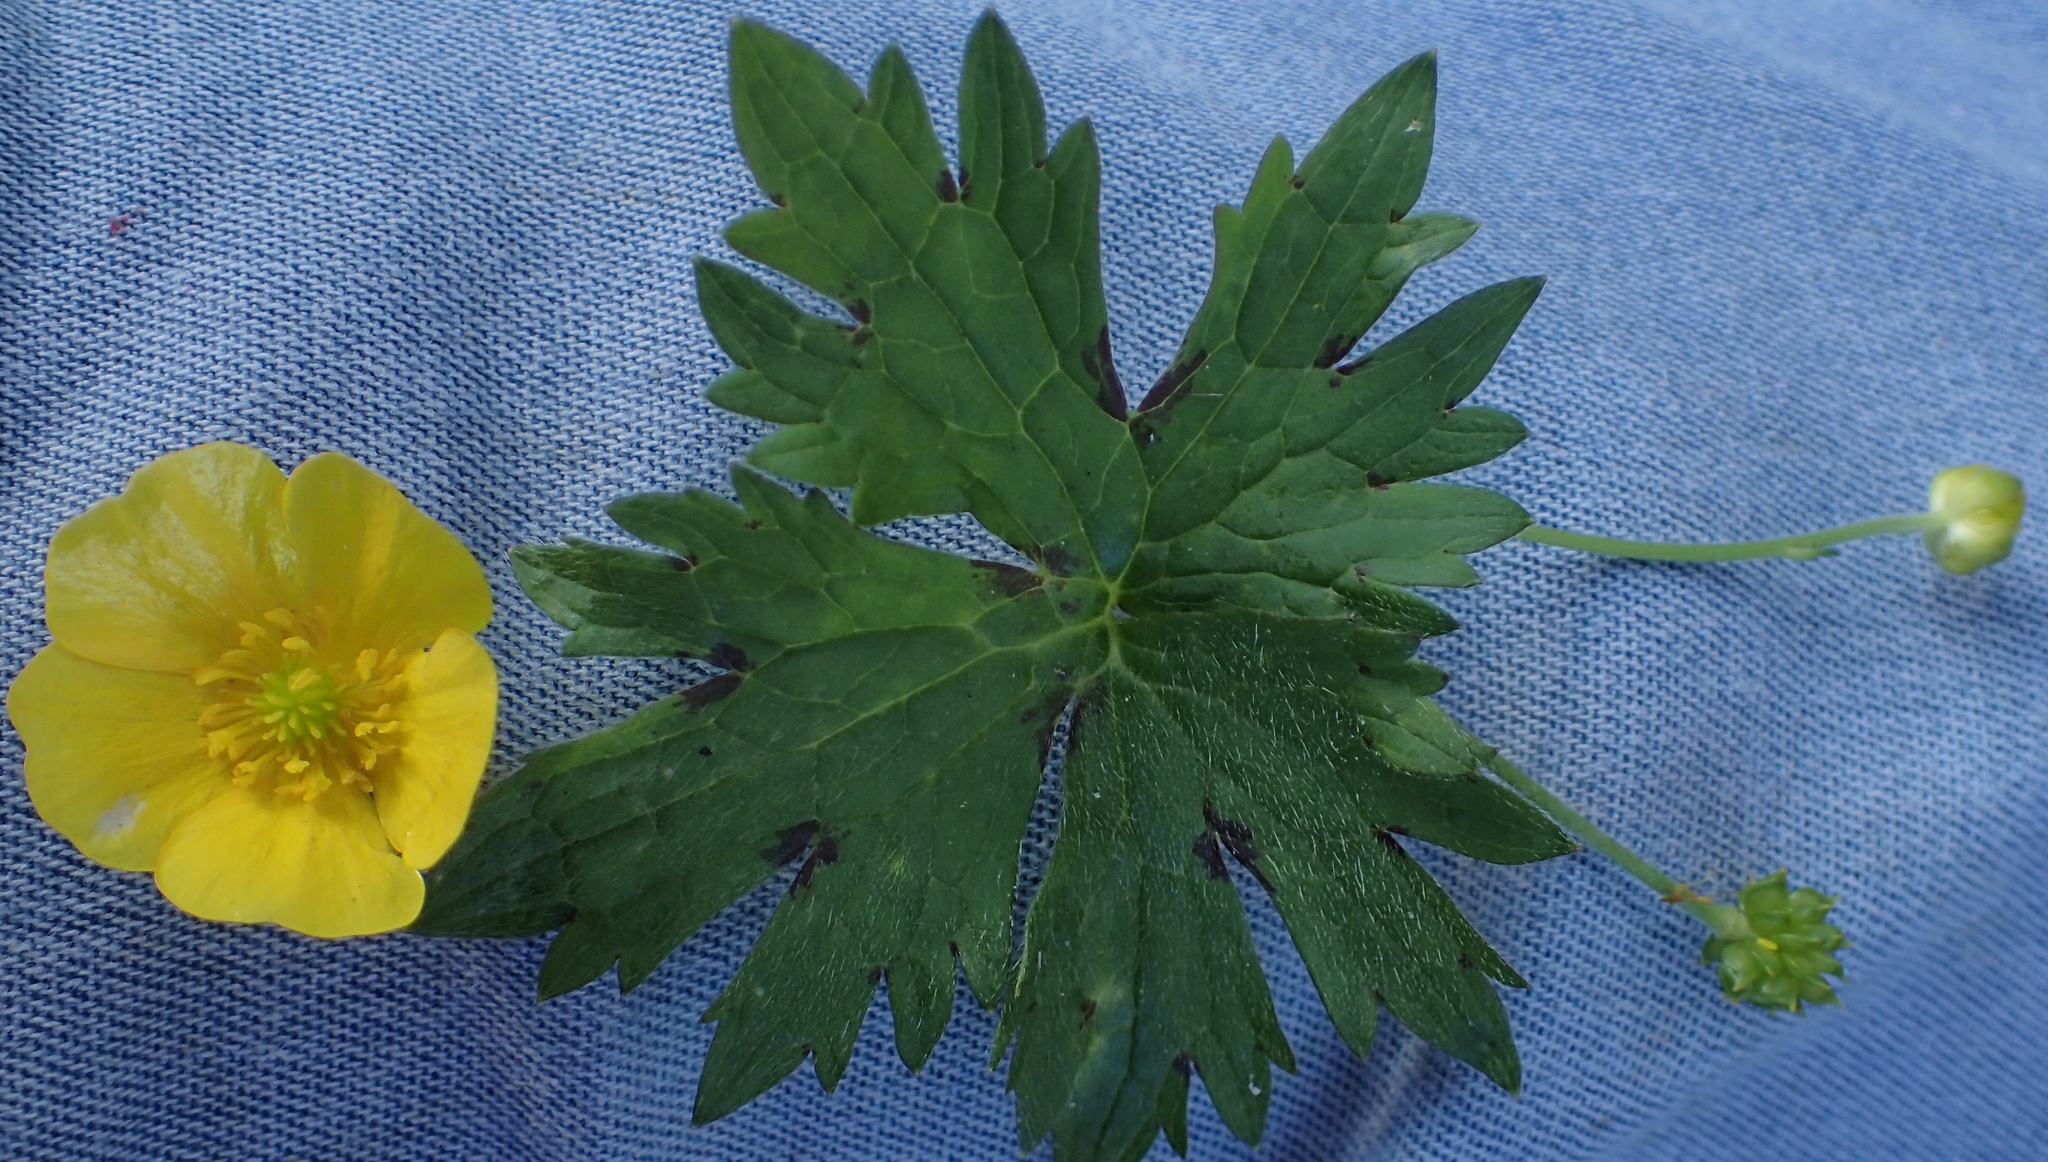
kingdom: Plantae
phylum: Tracheophyta
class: Magnoliopsida
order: Ranunculales
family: Ranunculaceae
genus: Ranunculus
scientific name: Ranunculus acris
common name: Meadow buttercup
